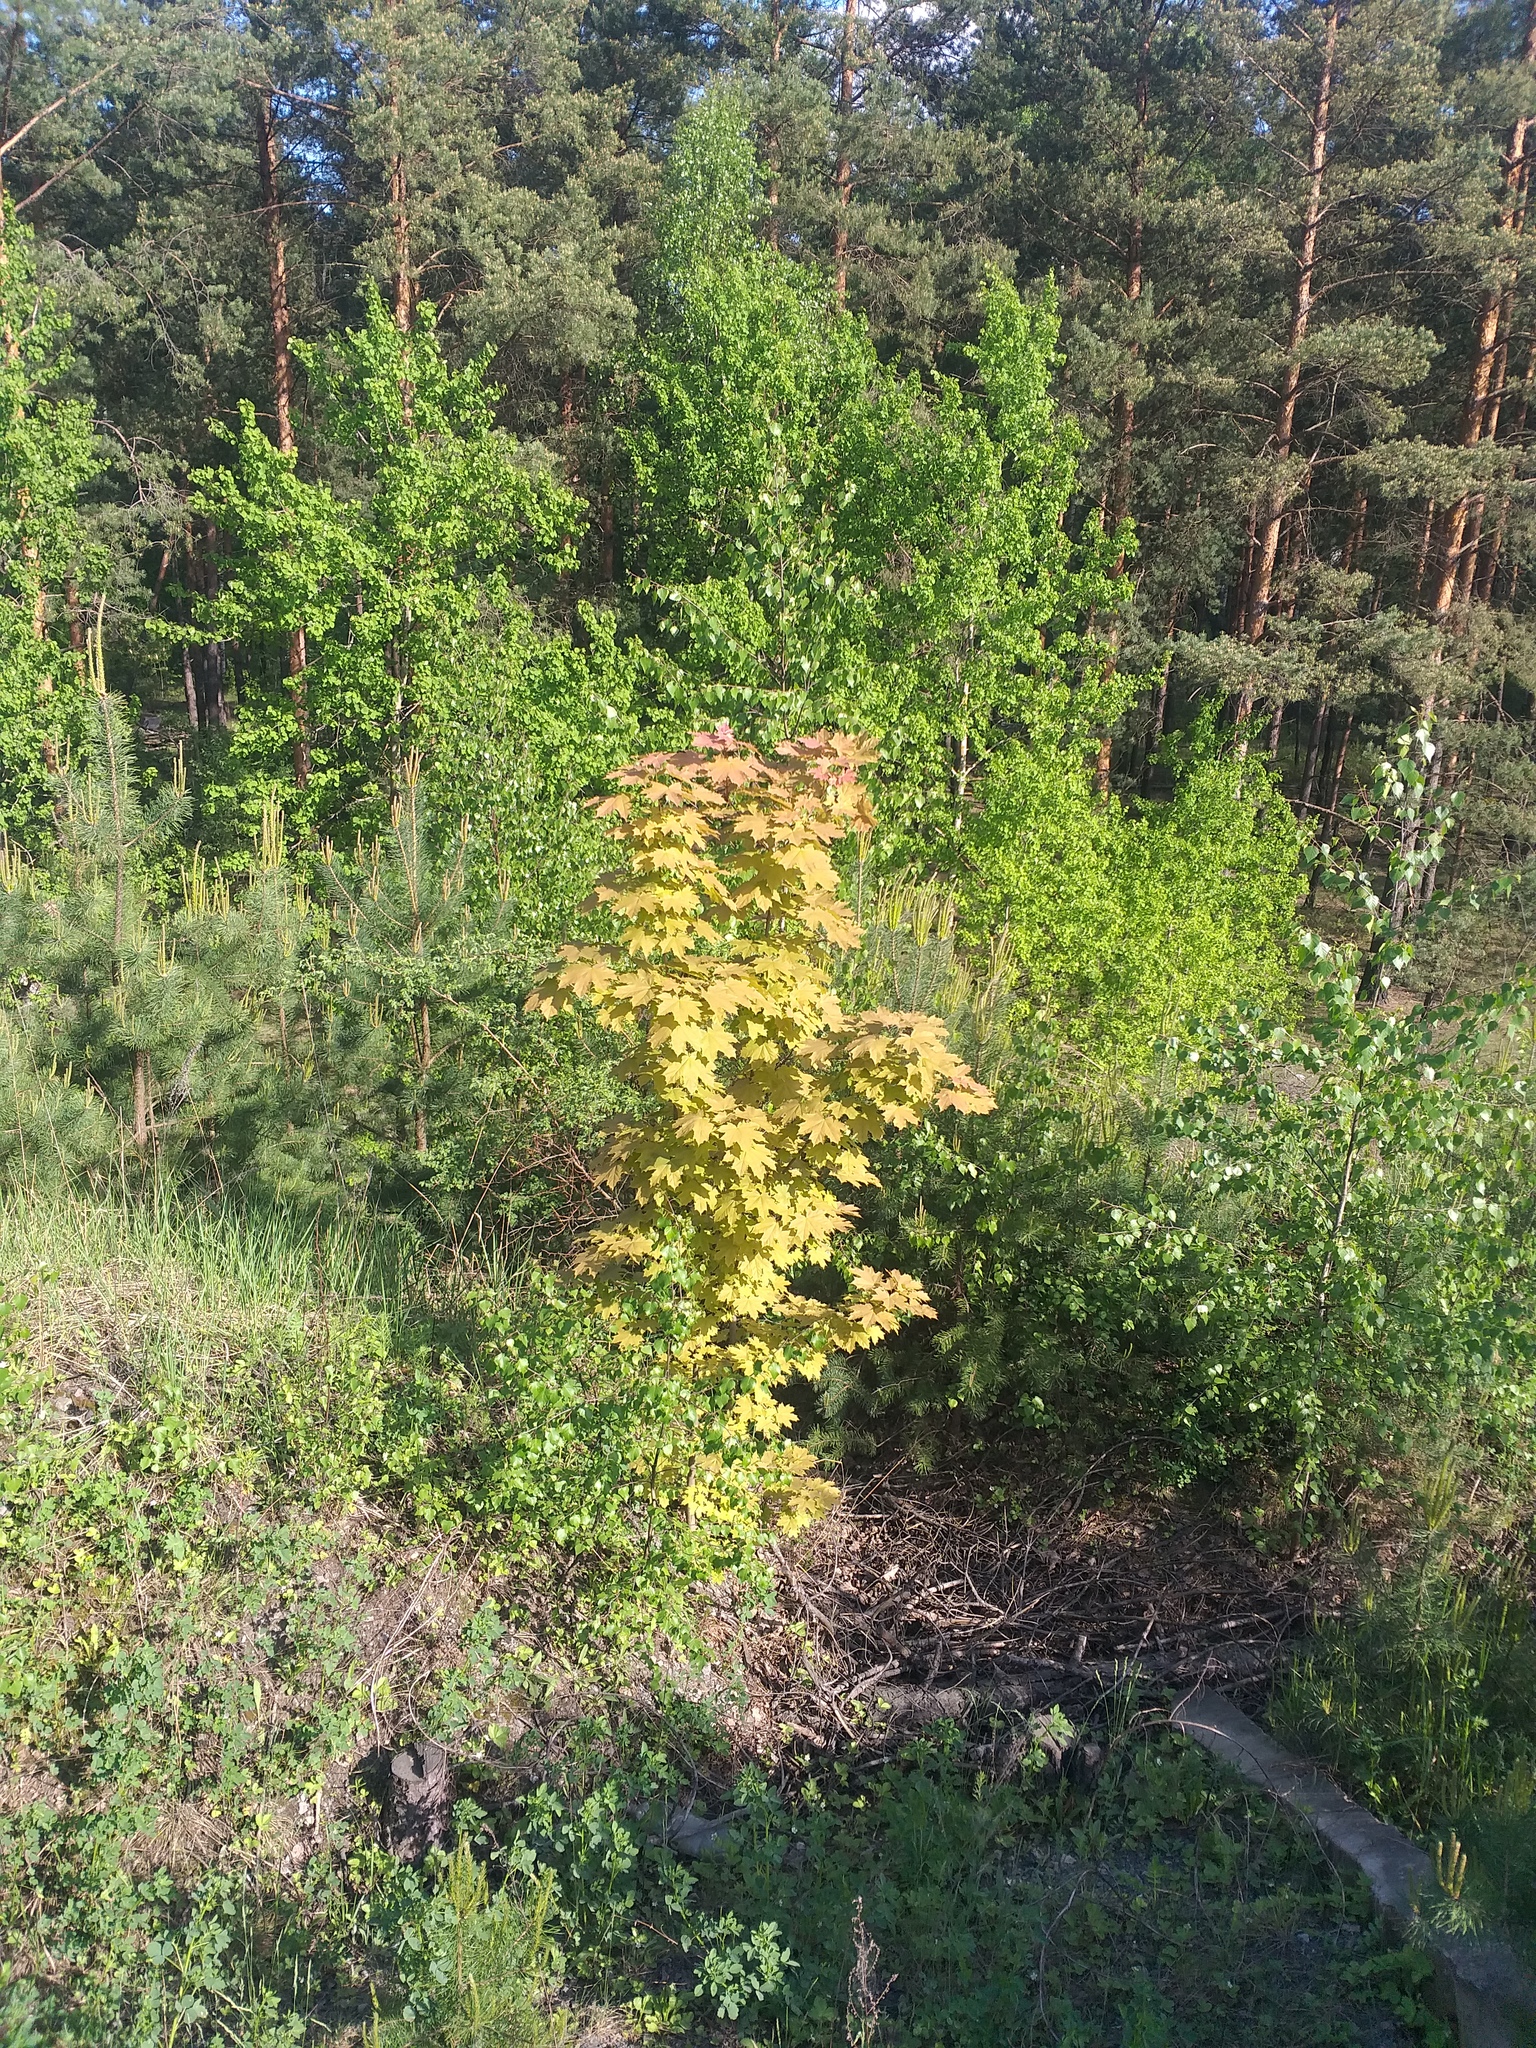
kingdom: Plantae
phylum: Tracheophyta
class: Magnoliopsida
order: Sapindales
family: Sapindaceae
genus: Acer
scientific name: Acer platanoides
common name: Norway maple
